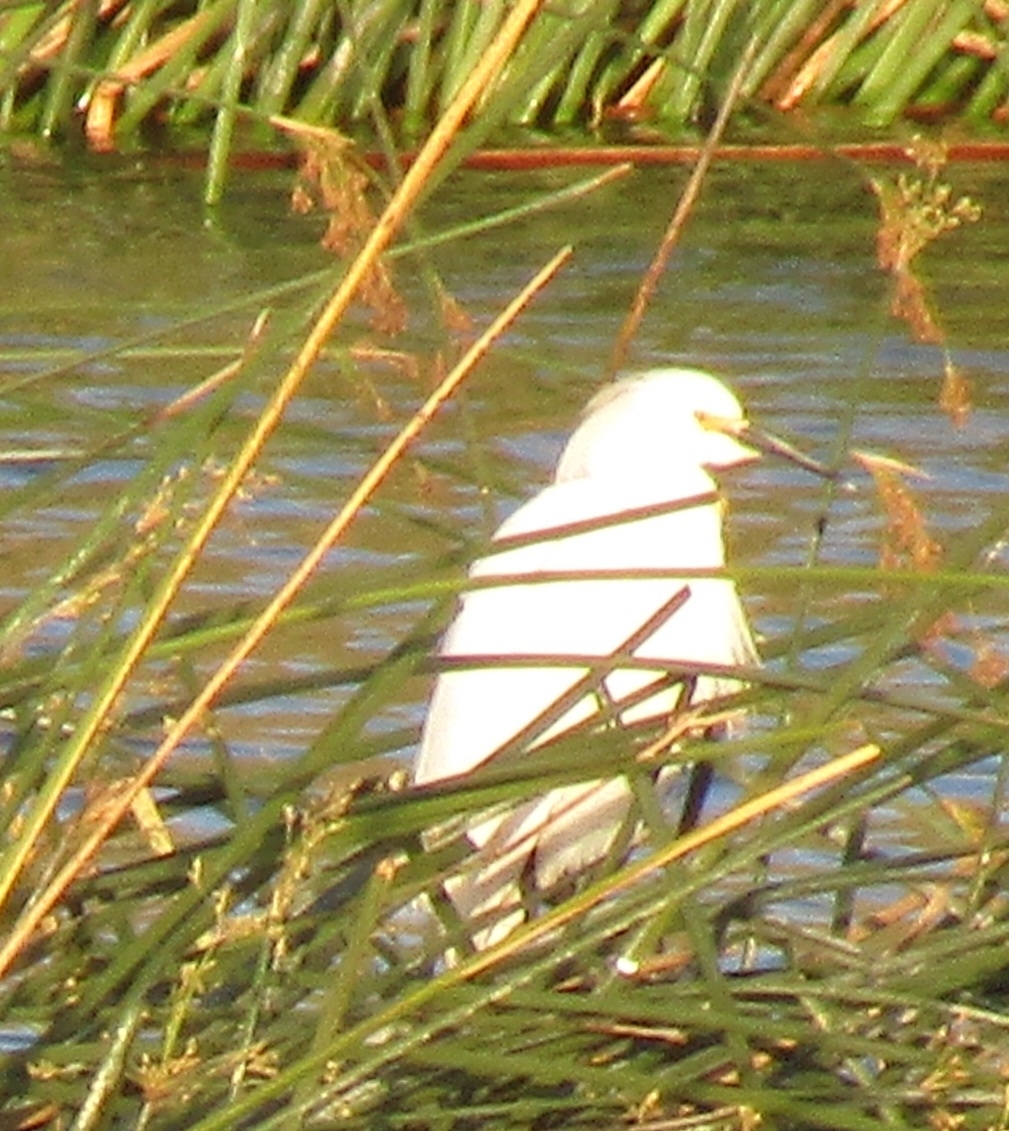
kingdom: Animalia
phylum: Chordata
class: Aves
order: Pelecaniformes
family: Ardeidae
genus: Egretta
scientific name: Egretta thula
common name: Snowy egret
